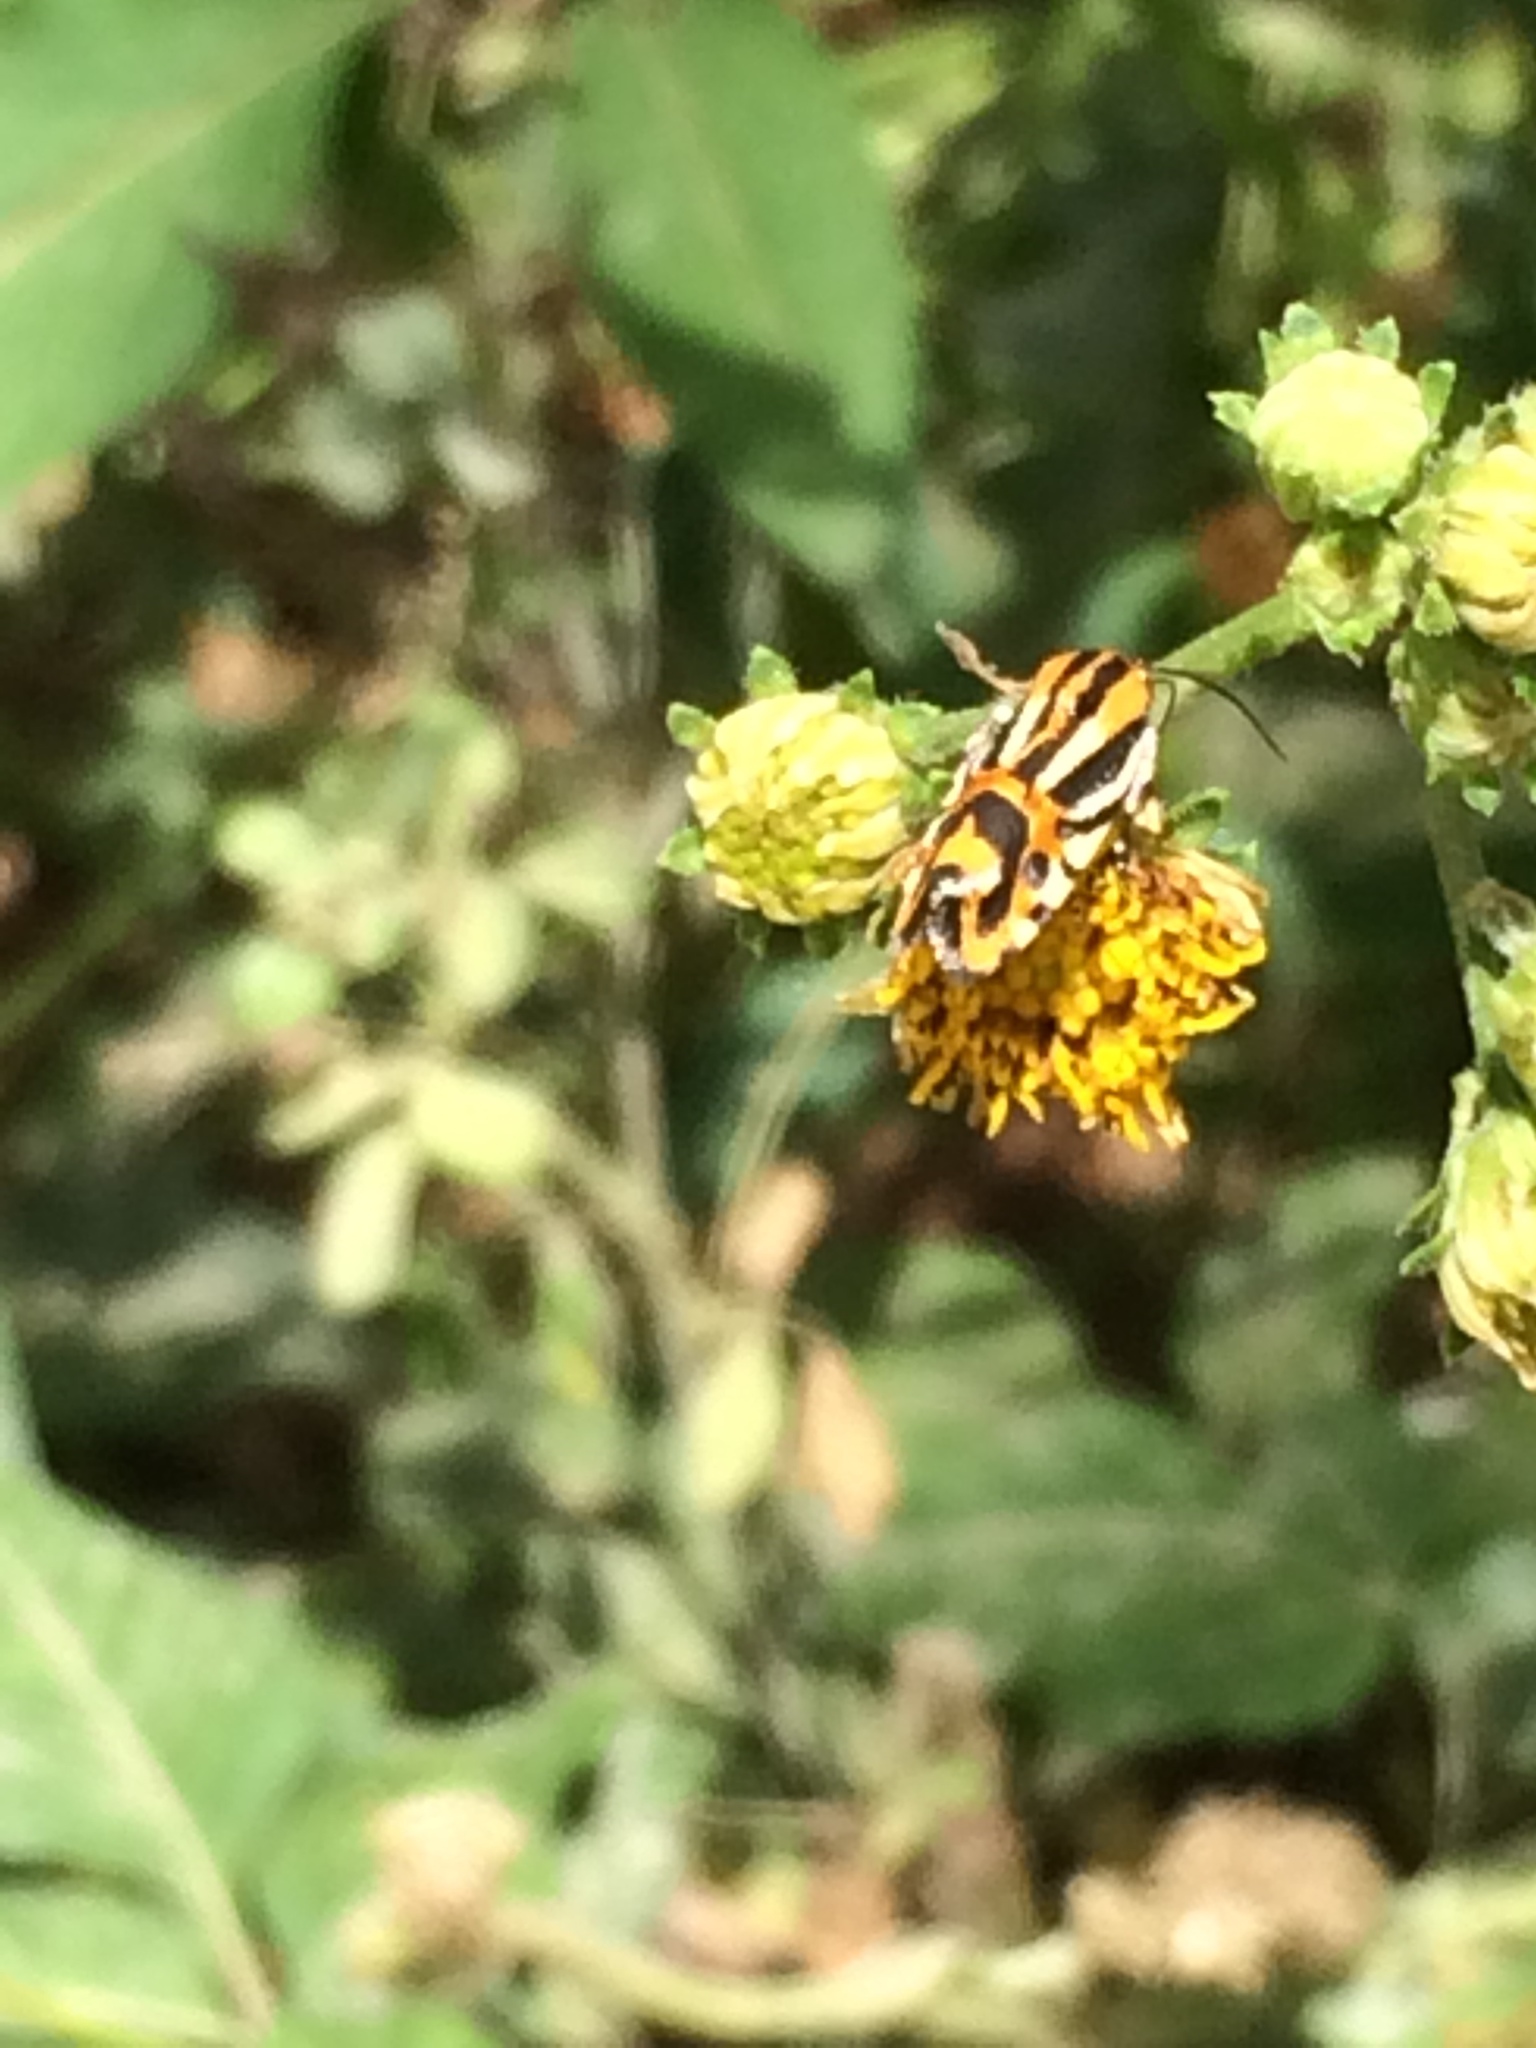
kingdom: Animalia
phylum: Arthropoda
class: Insecta
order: Lepidoptera
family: Noctuidae
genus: Acontia
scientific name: Acontia onagrus
